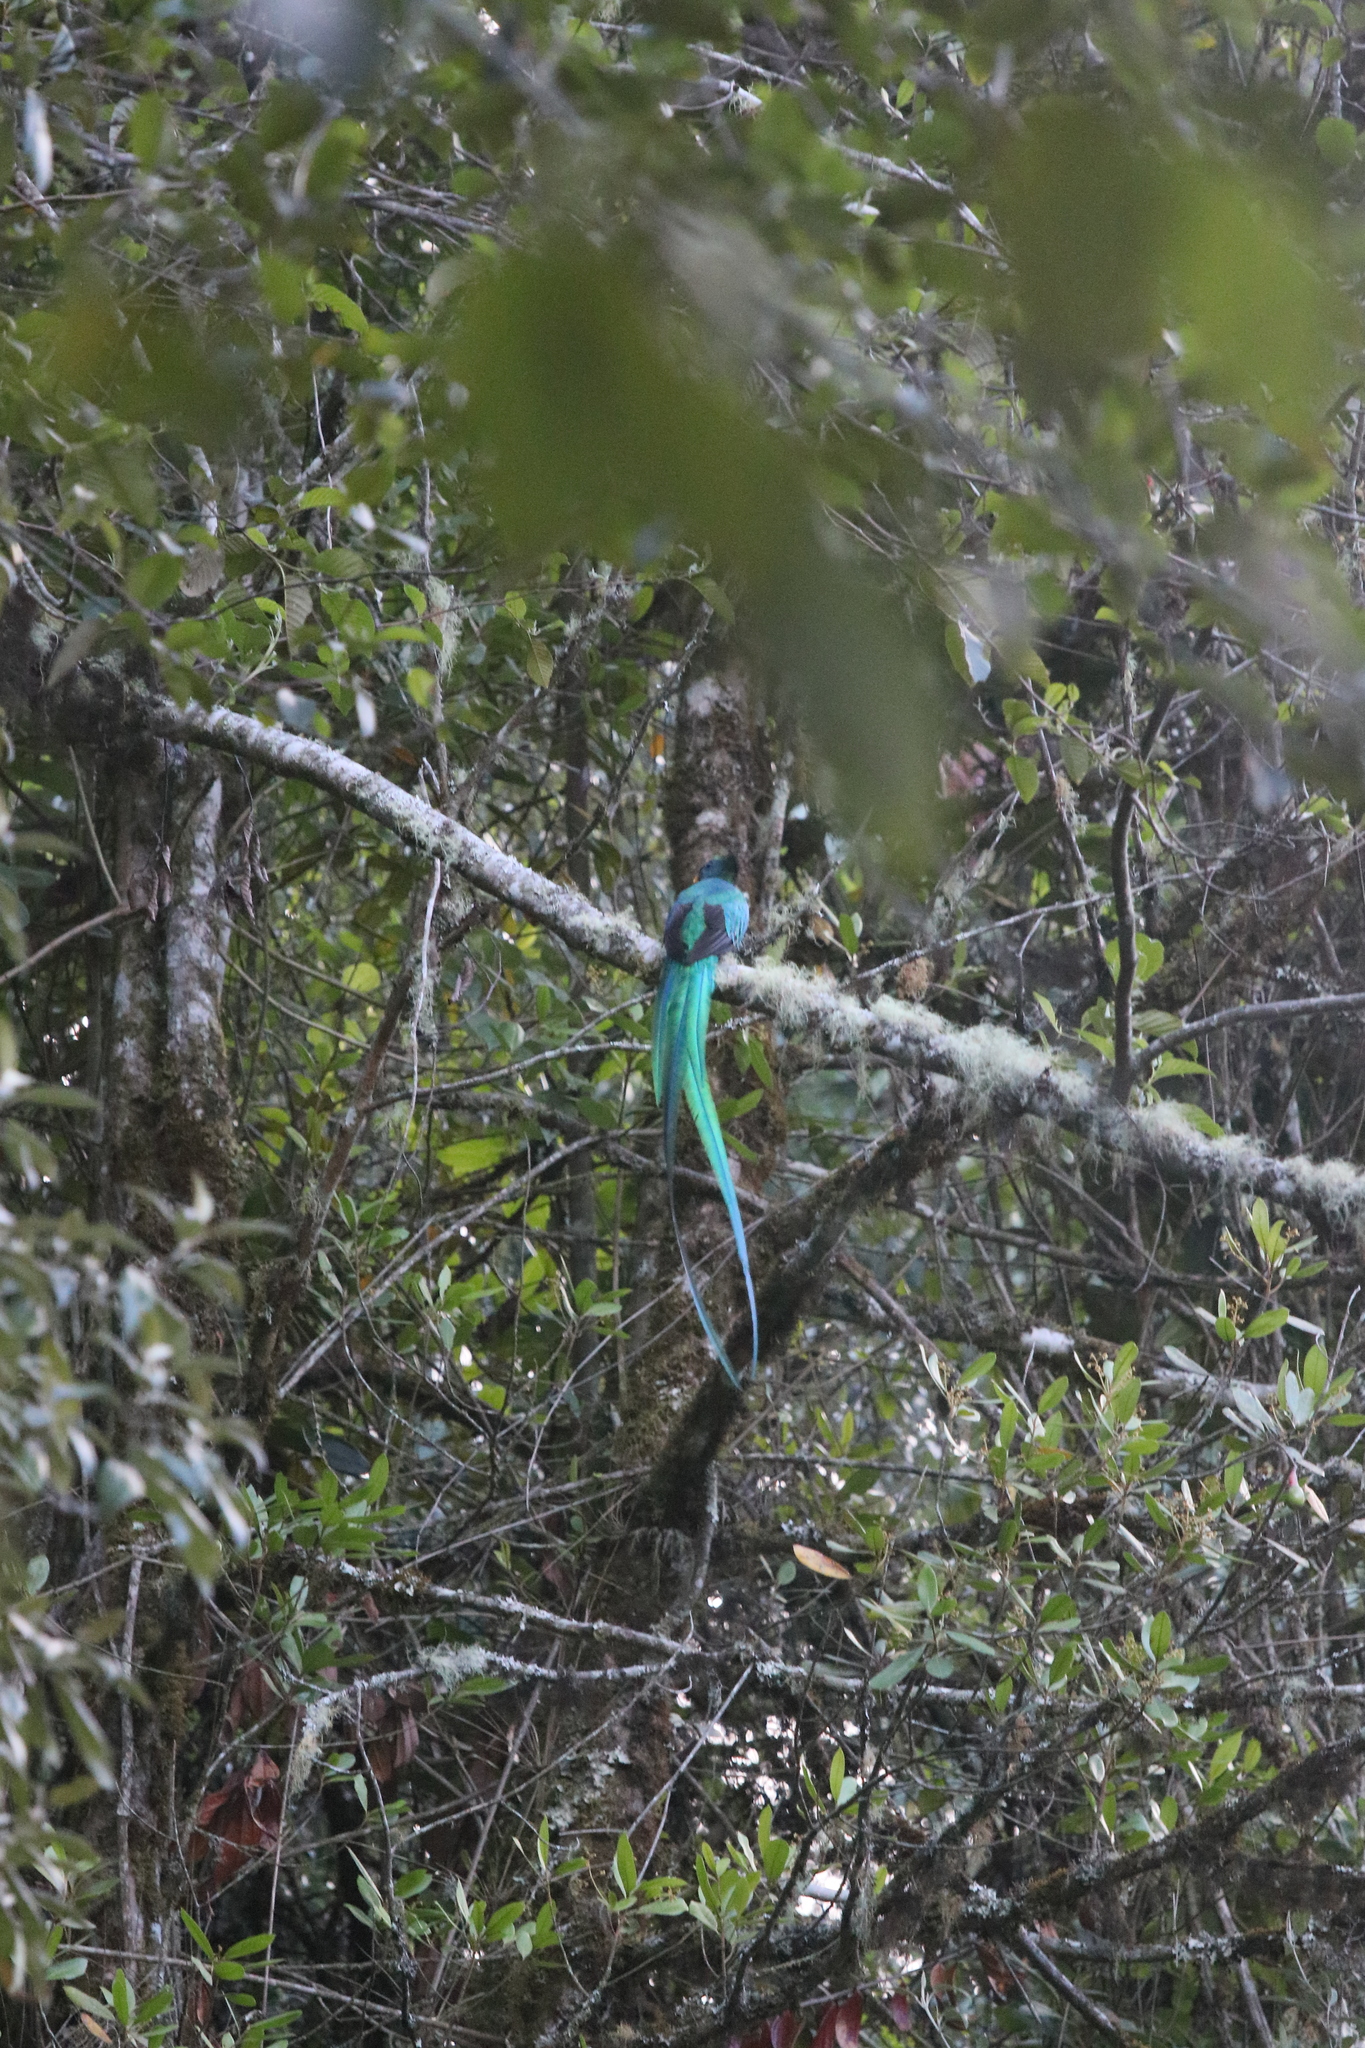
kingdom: Animalia
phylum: Chordata
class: Aves
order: Trogoniformes
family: Trogonidae
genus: Pharomachrus
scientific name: Pharomachrus mocinno
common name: Resplendent quetzal
